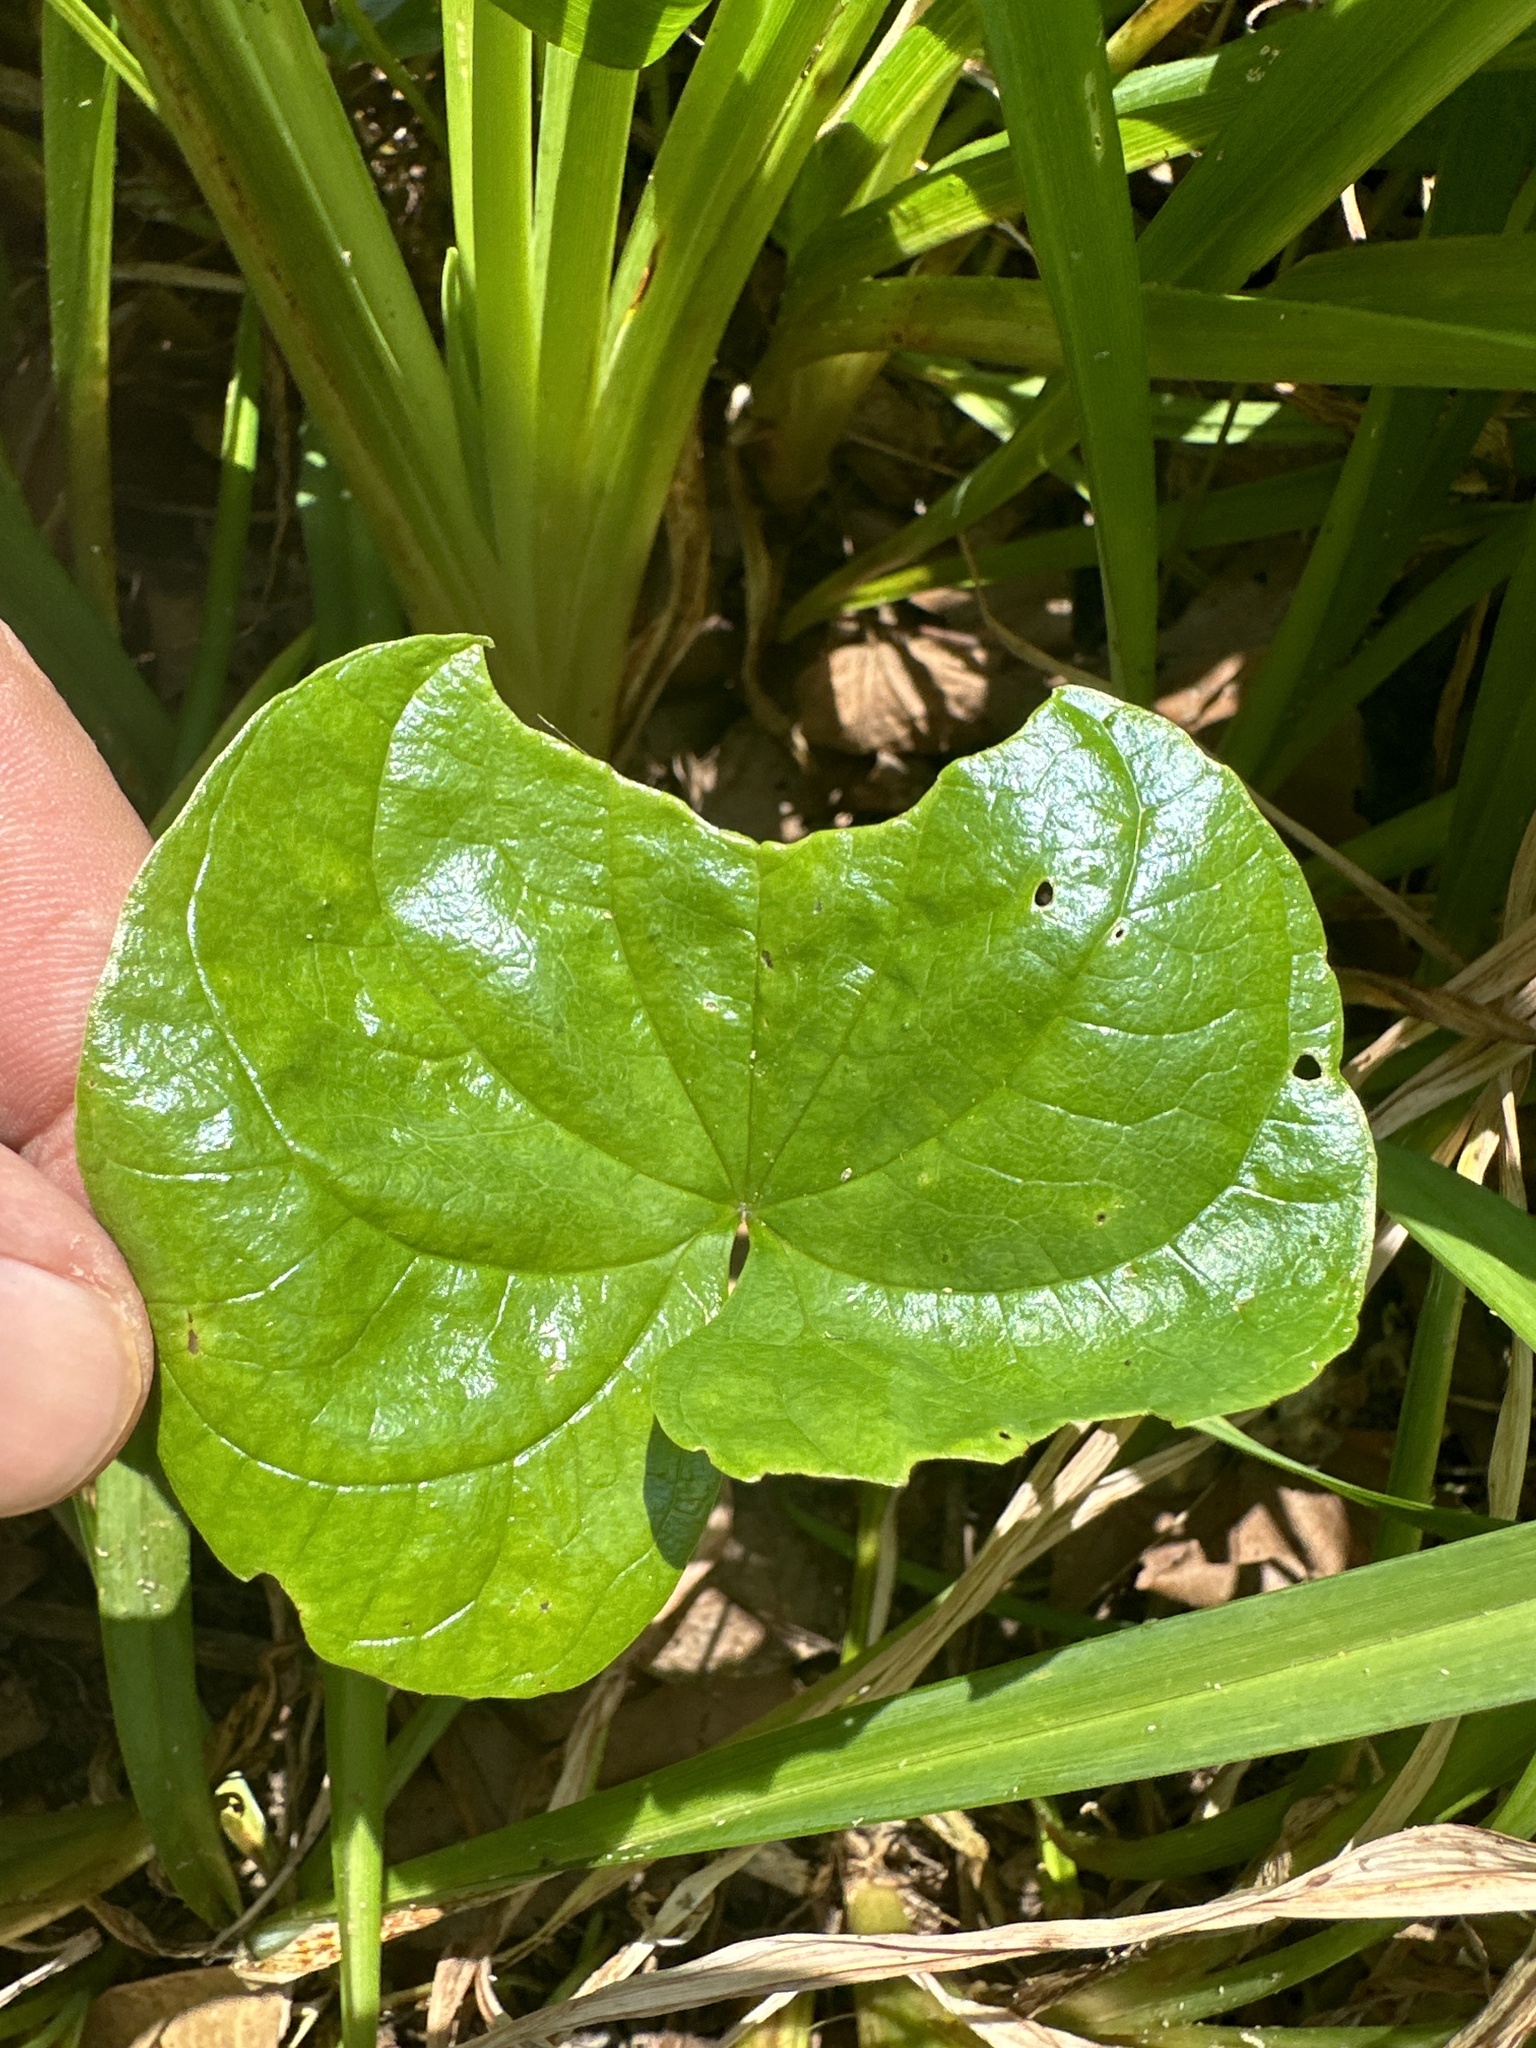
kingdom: Plantae
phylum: Tracheophyta
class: Liliopsida
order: Dioscoreales
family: Dioscoreaceae
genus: Dioscorea
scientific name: Dioscorea polystachya
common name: Chinese yam
